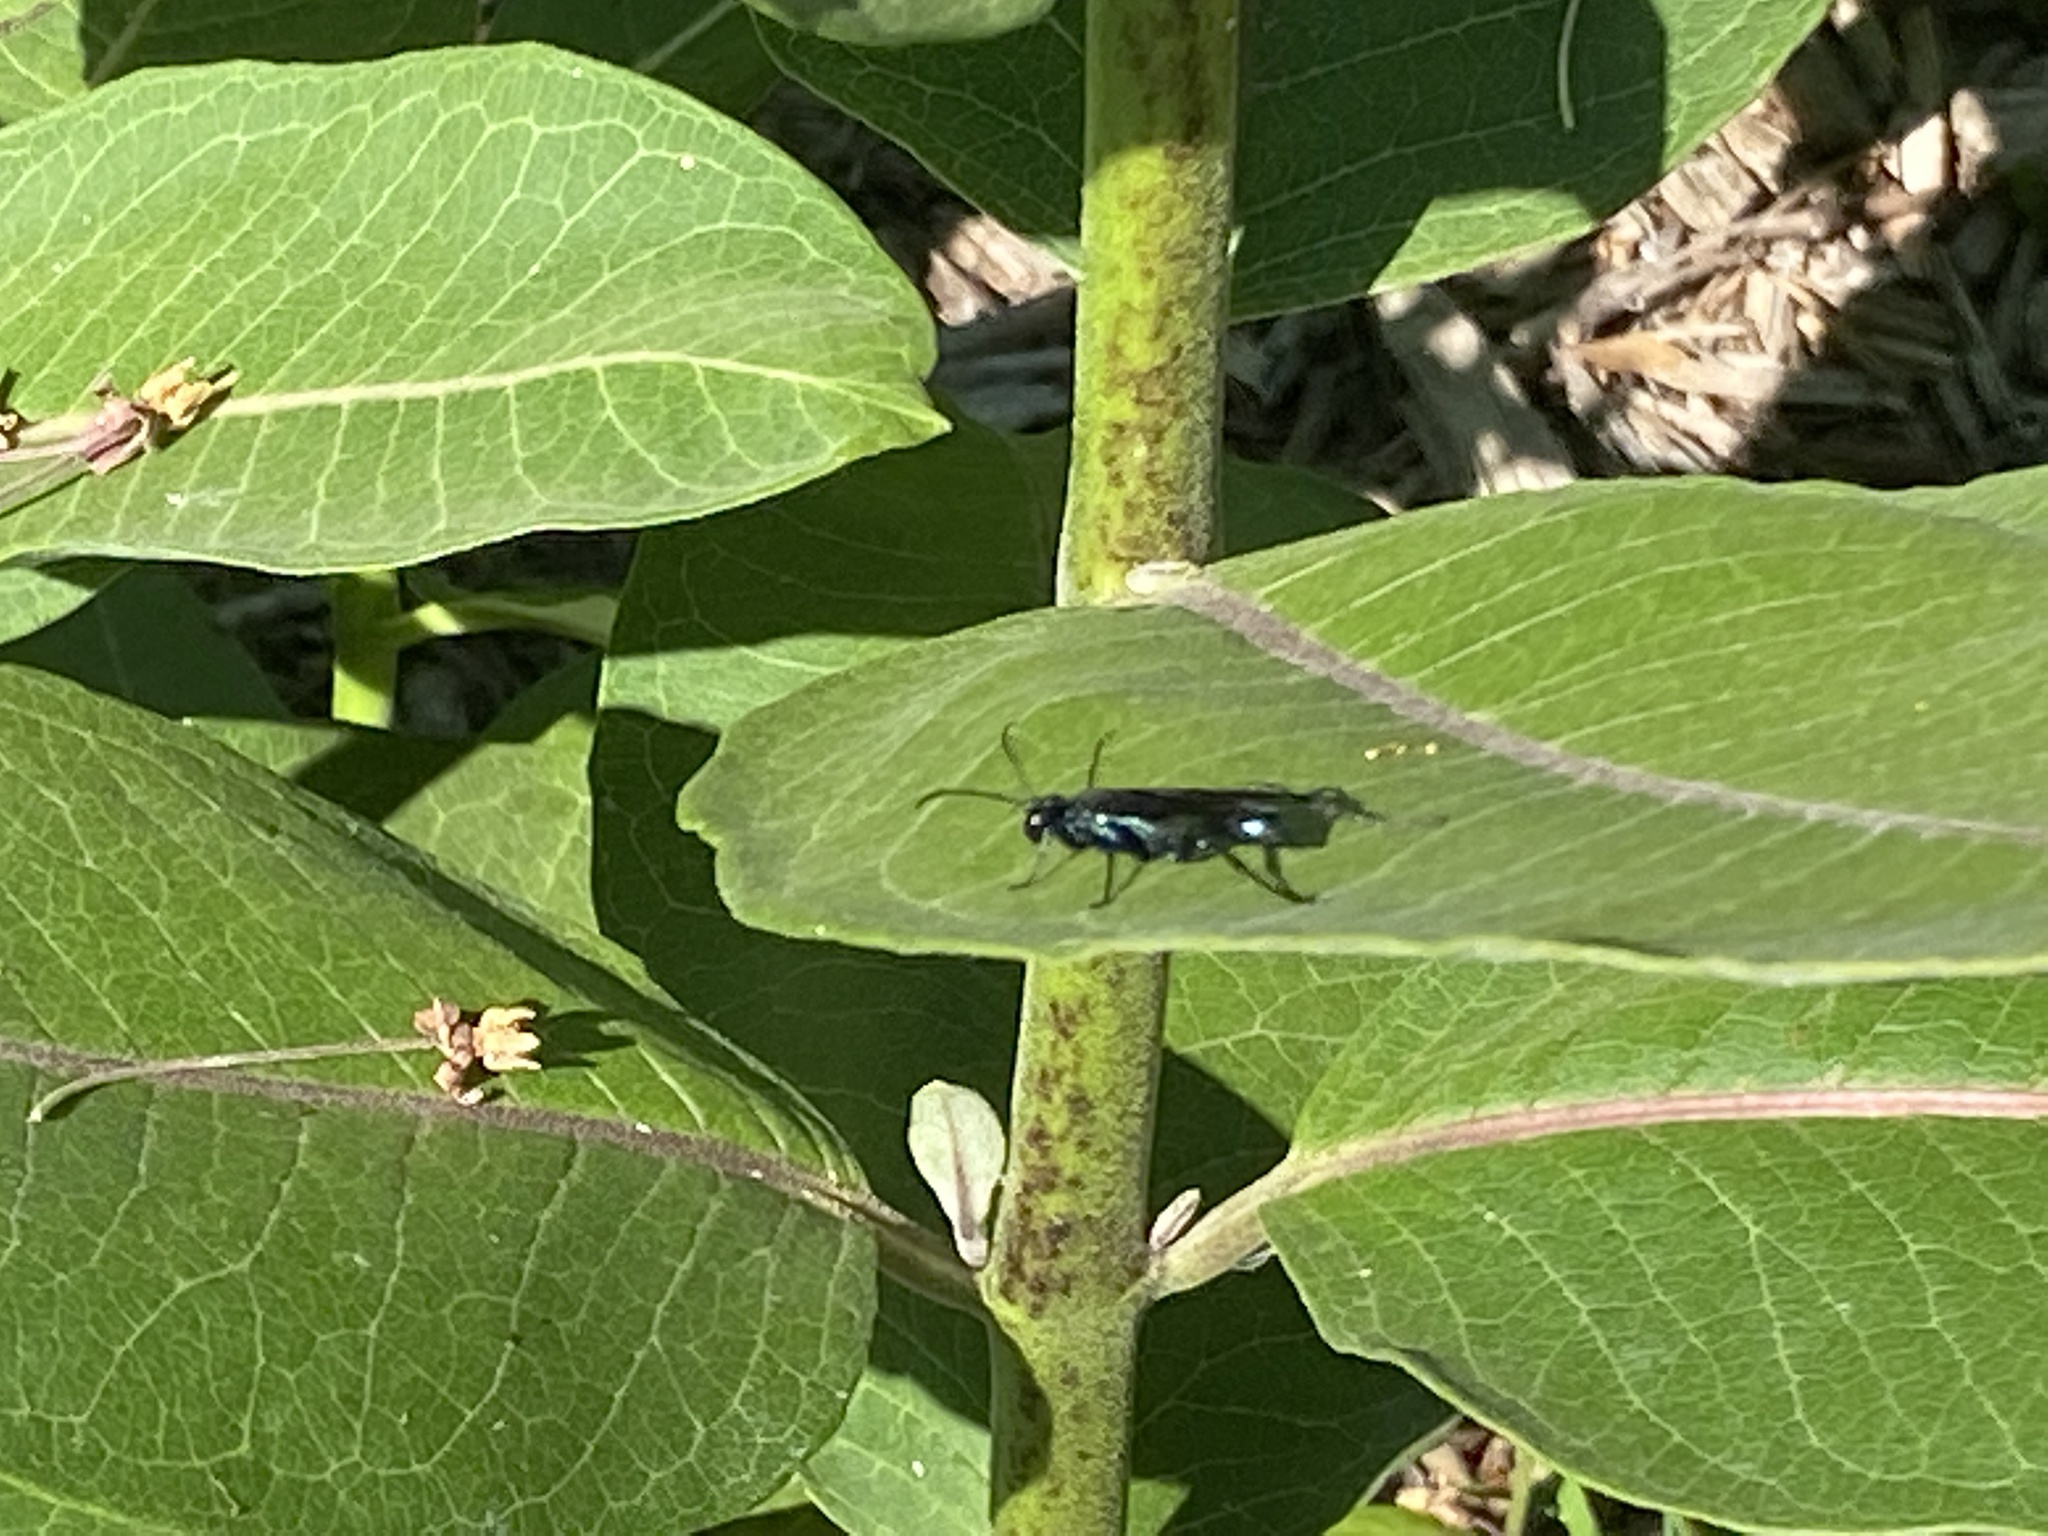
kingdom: Animalia
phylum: Arthropoda
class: Insecta
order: Hymenoptera
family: Sphecidae
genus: Chalybion
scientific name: Chalybion californicum
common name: Mud dauber
